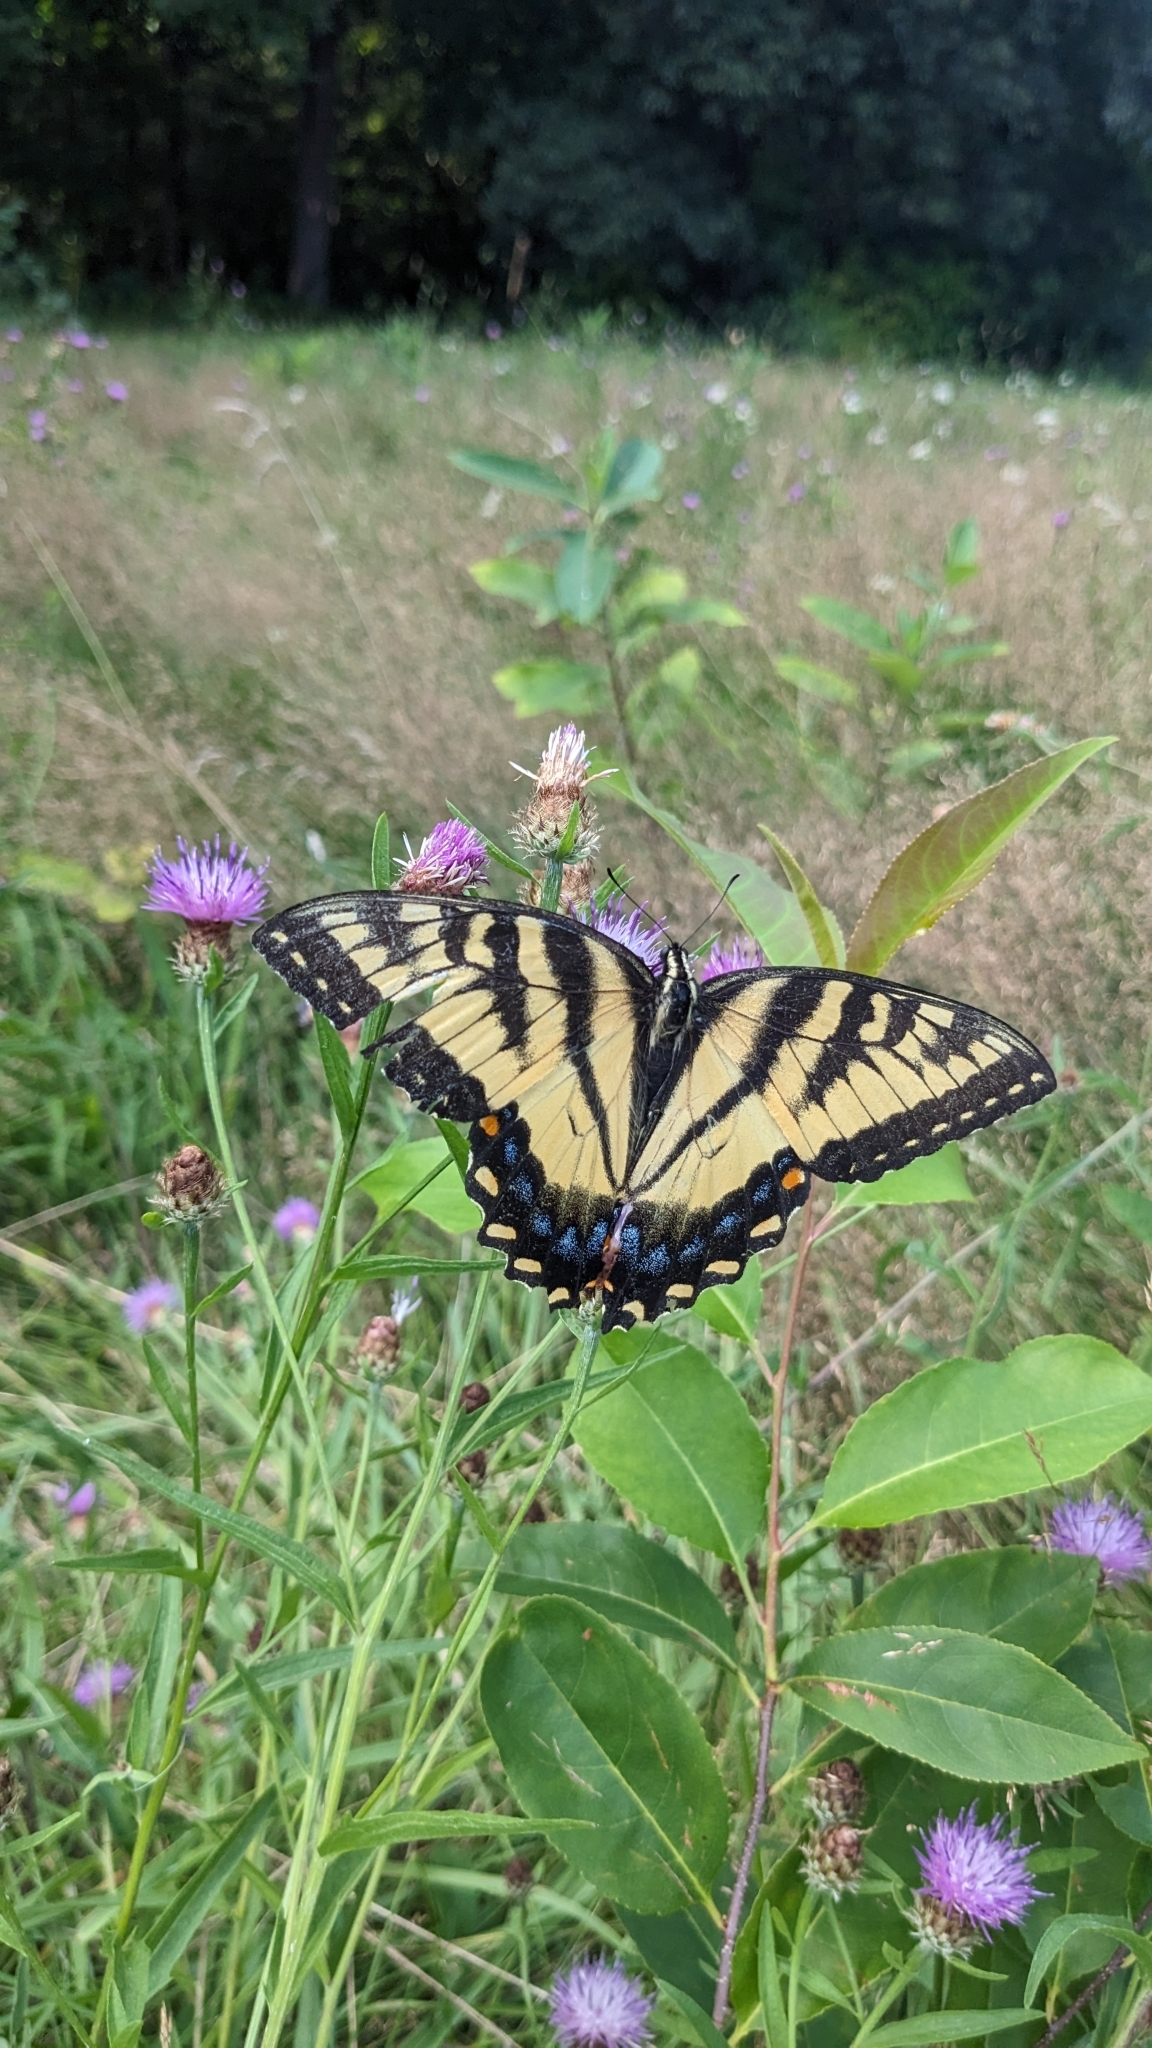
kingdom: Animalia
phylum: Arthropoda
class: Insecta
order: Lepidoptera
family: Papilionidae
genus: Papilio
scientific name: Papilio glaucus
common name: Tiger swallowtail
